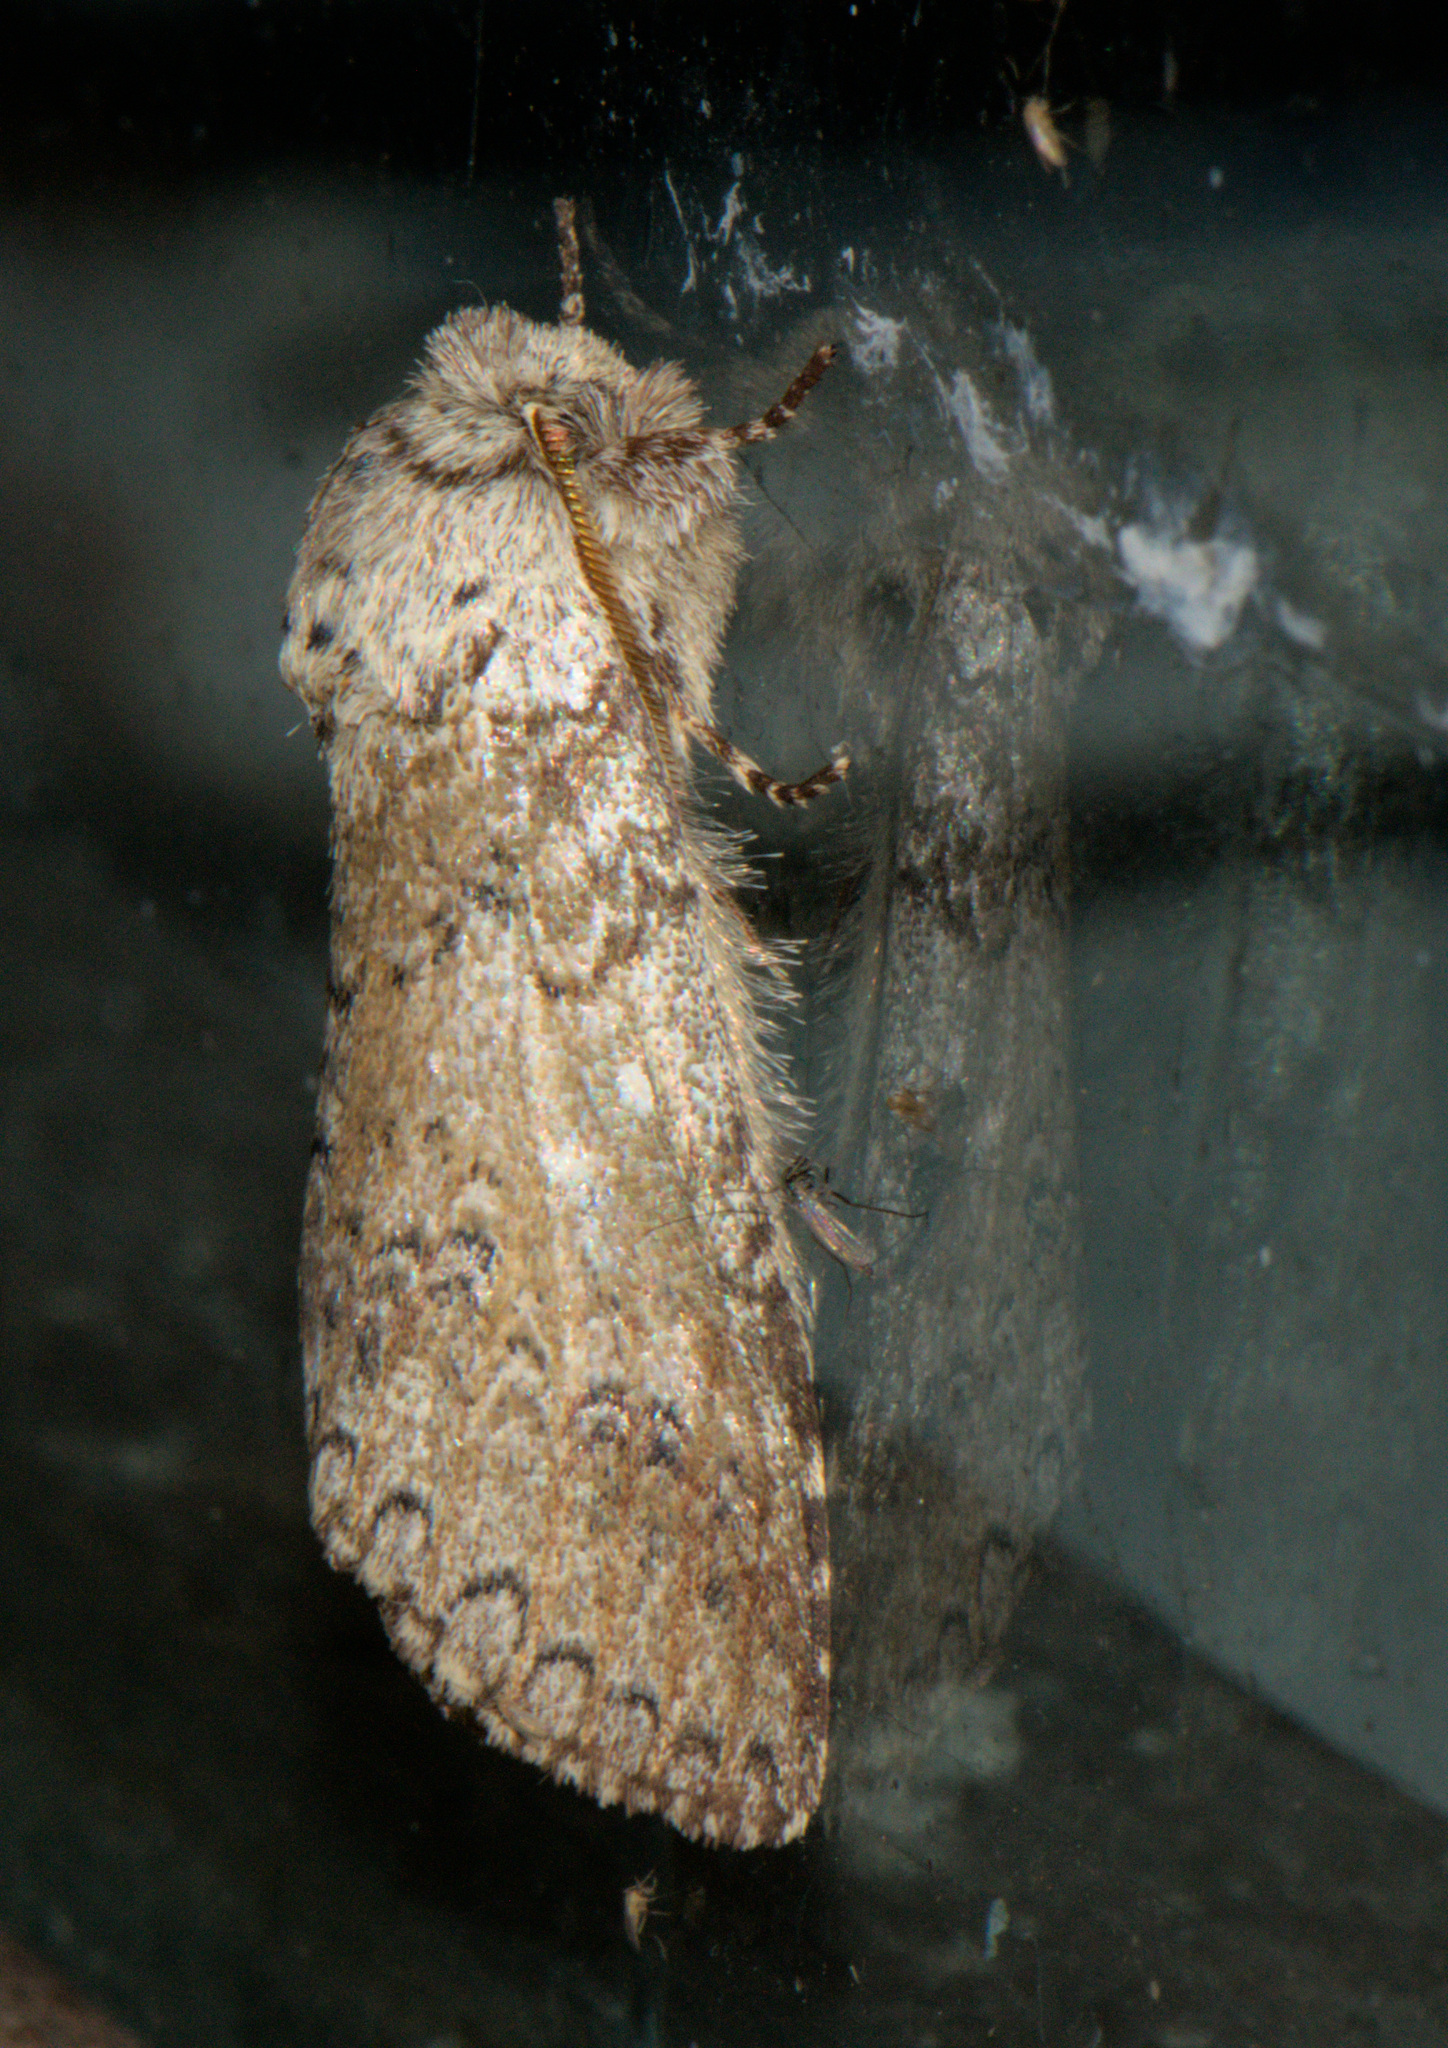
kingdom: Animalia
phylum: Arthropoda
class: Insecta
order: Lepidoptera
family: Notodontidae
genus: Pseudofentonia
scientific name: Pseudofentonia argentifera
